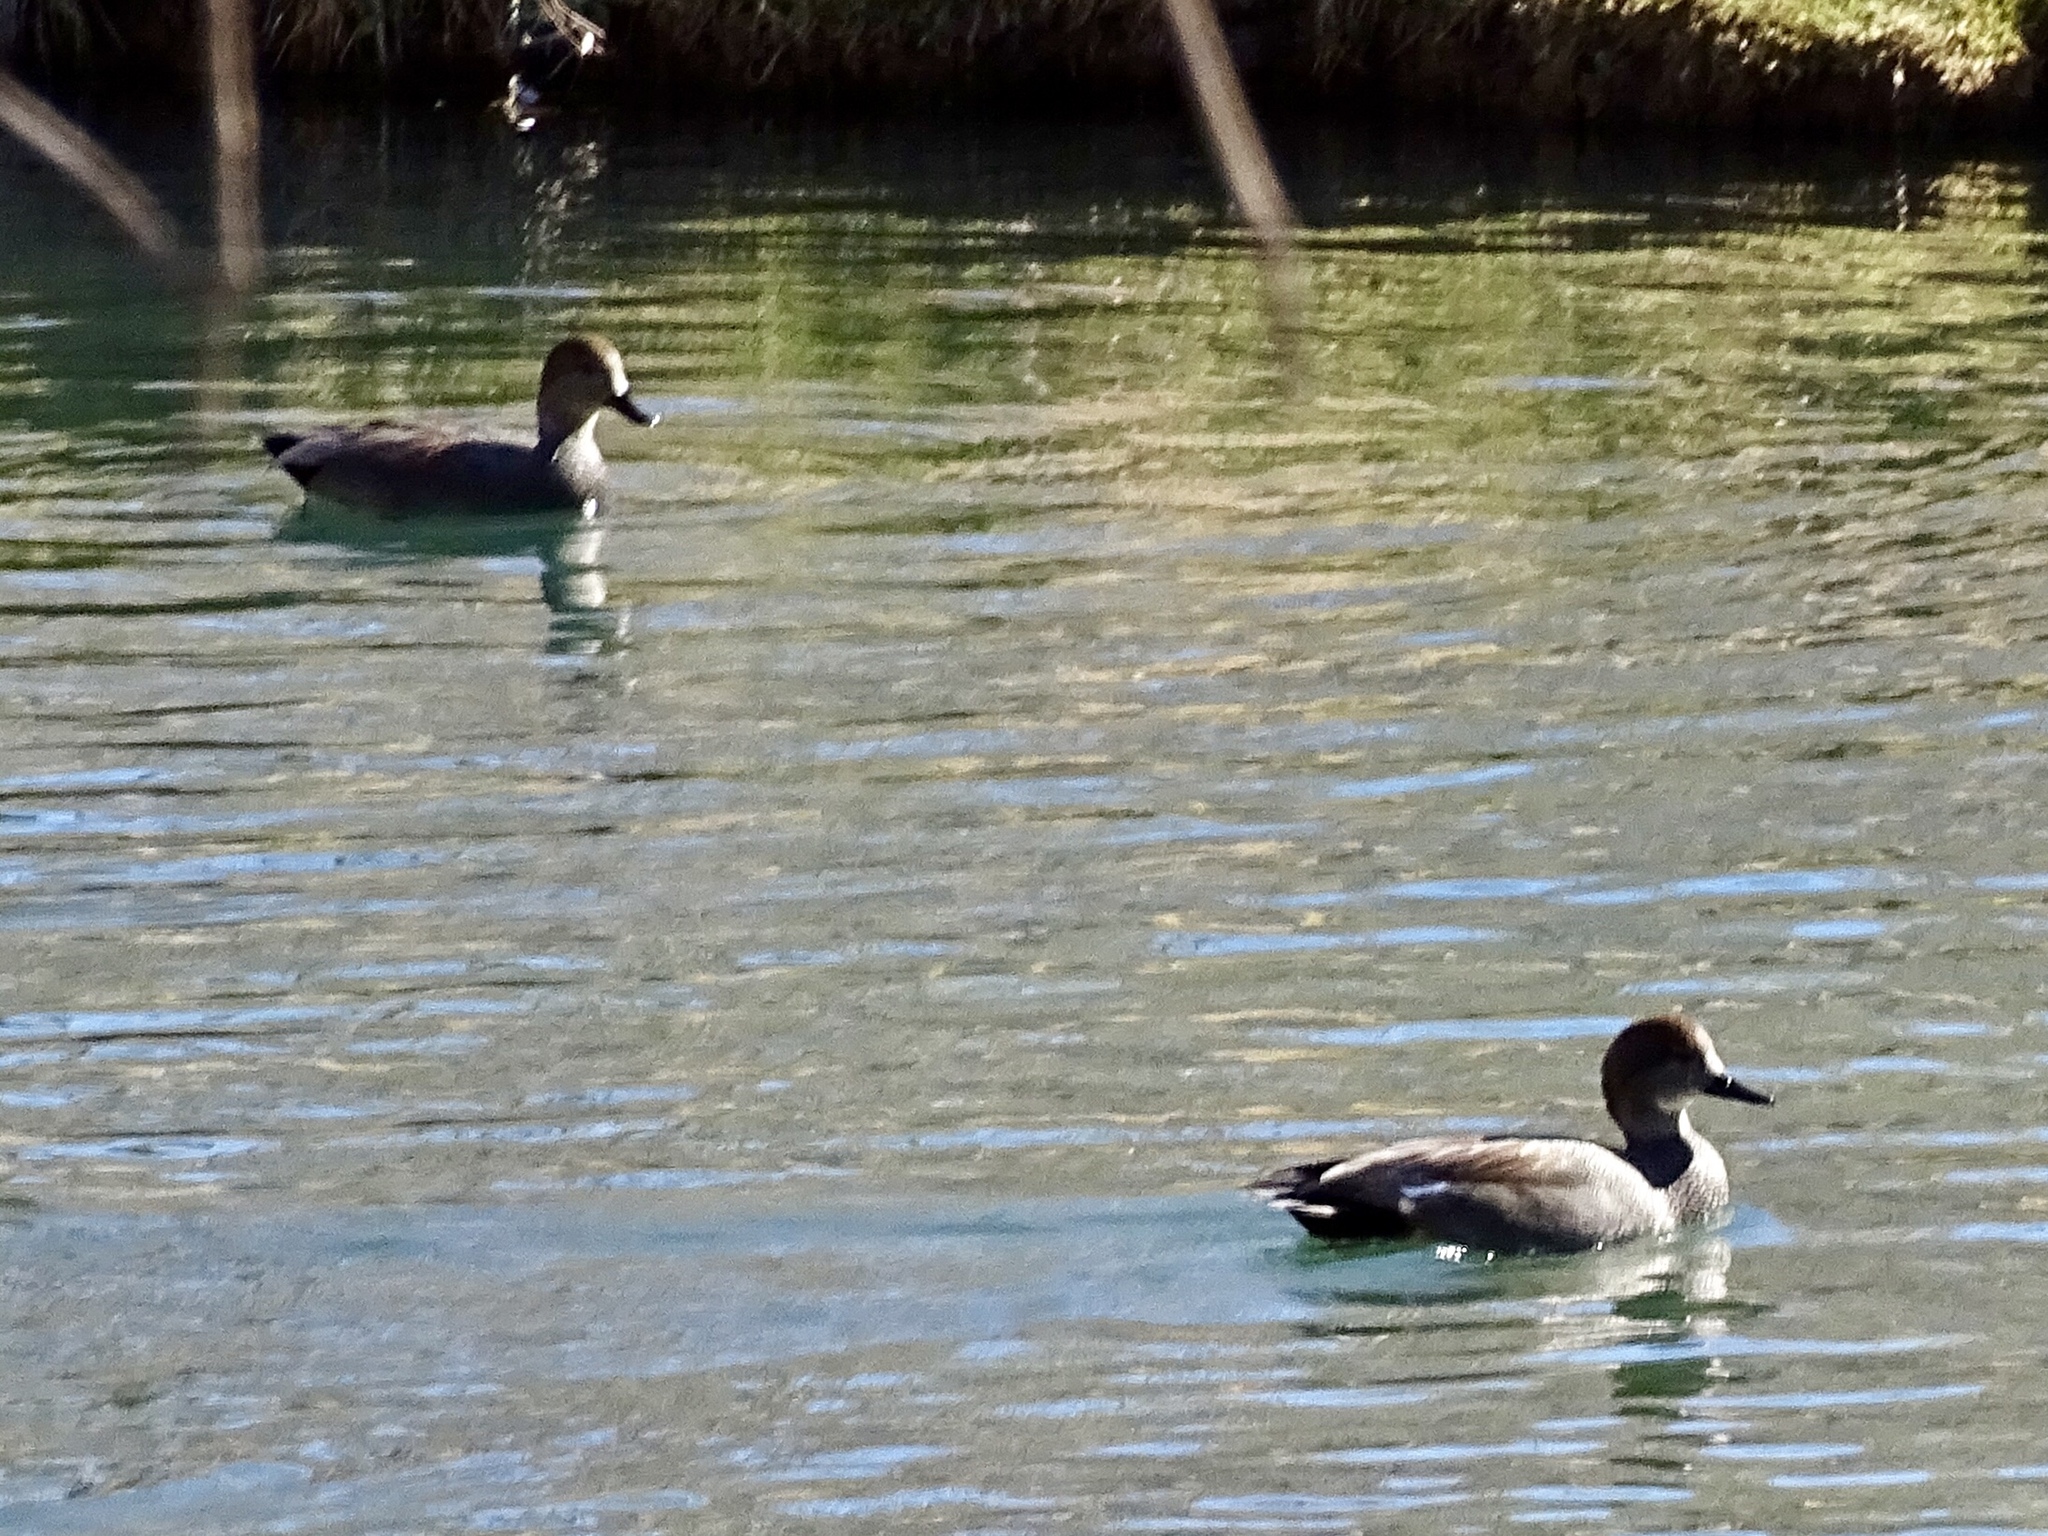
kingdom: Animalia
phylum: Chordata
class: Aves
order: Anseriformes
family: Anatidae
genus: Mareca
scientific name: Mareca strepera
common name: Gadwall
